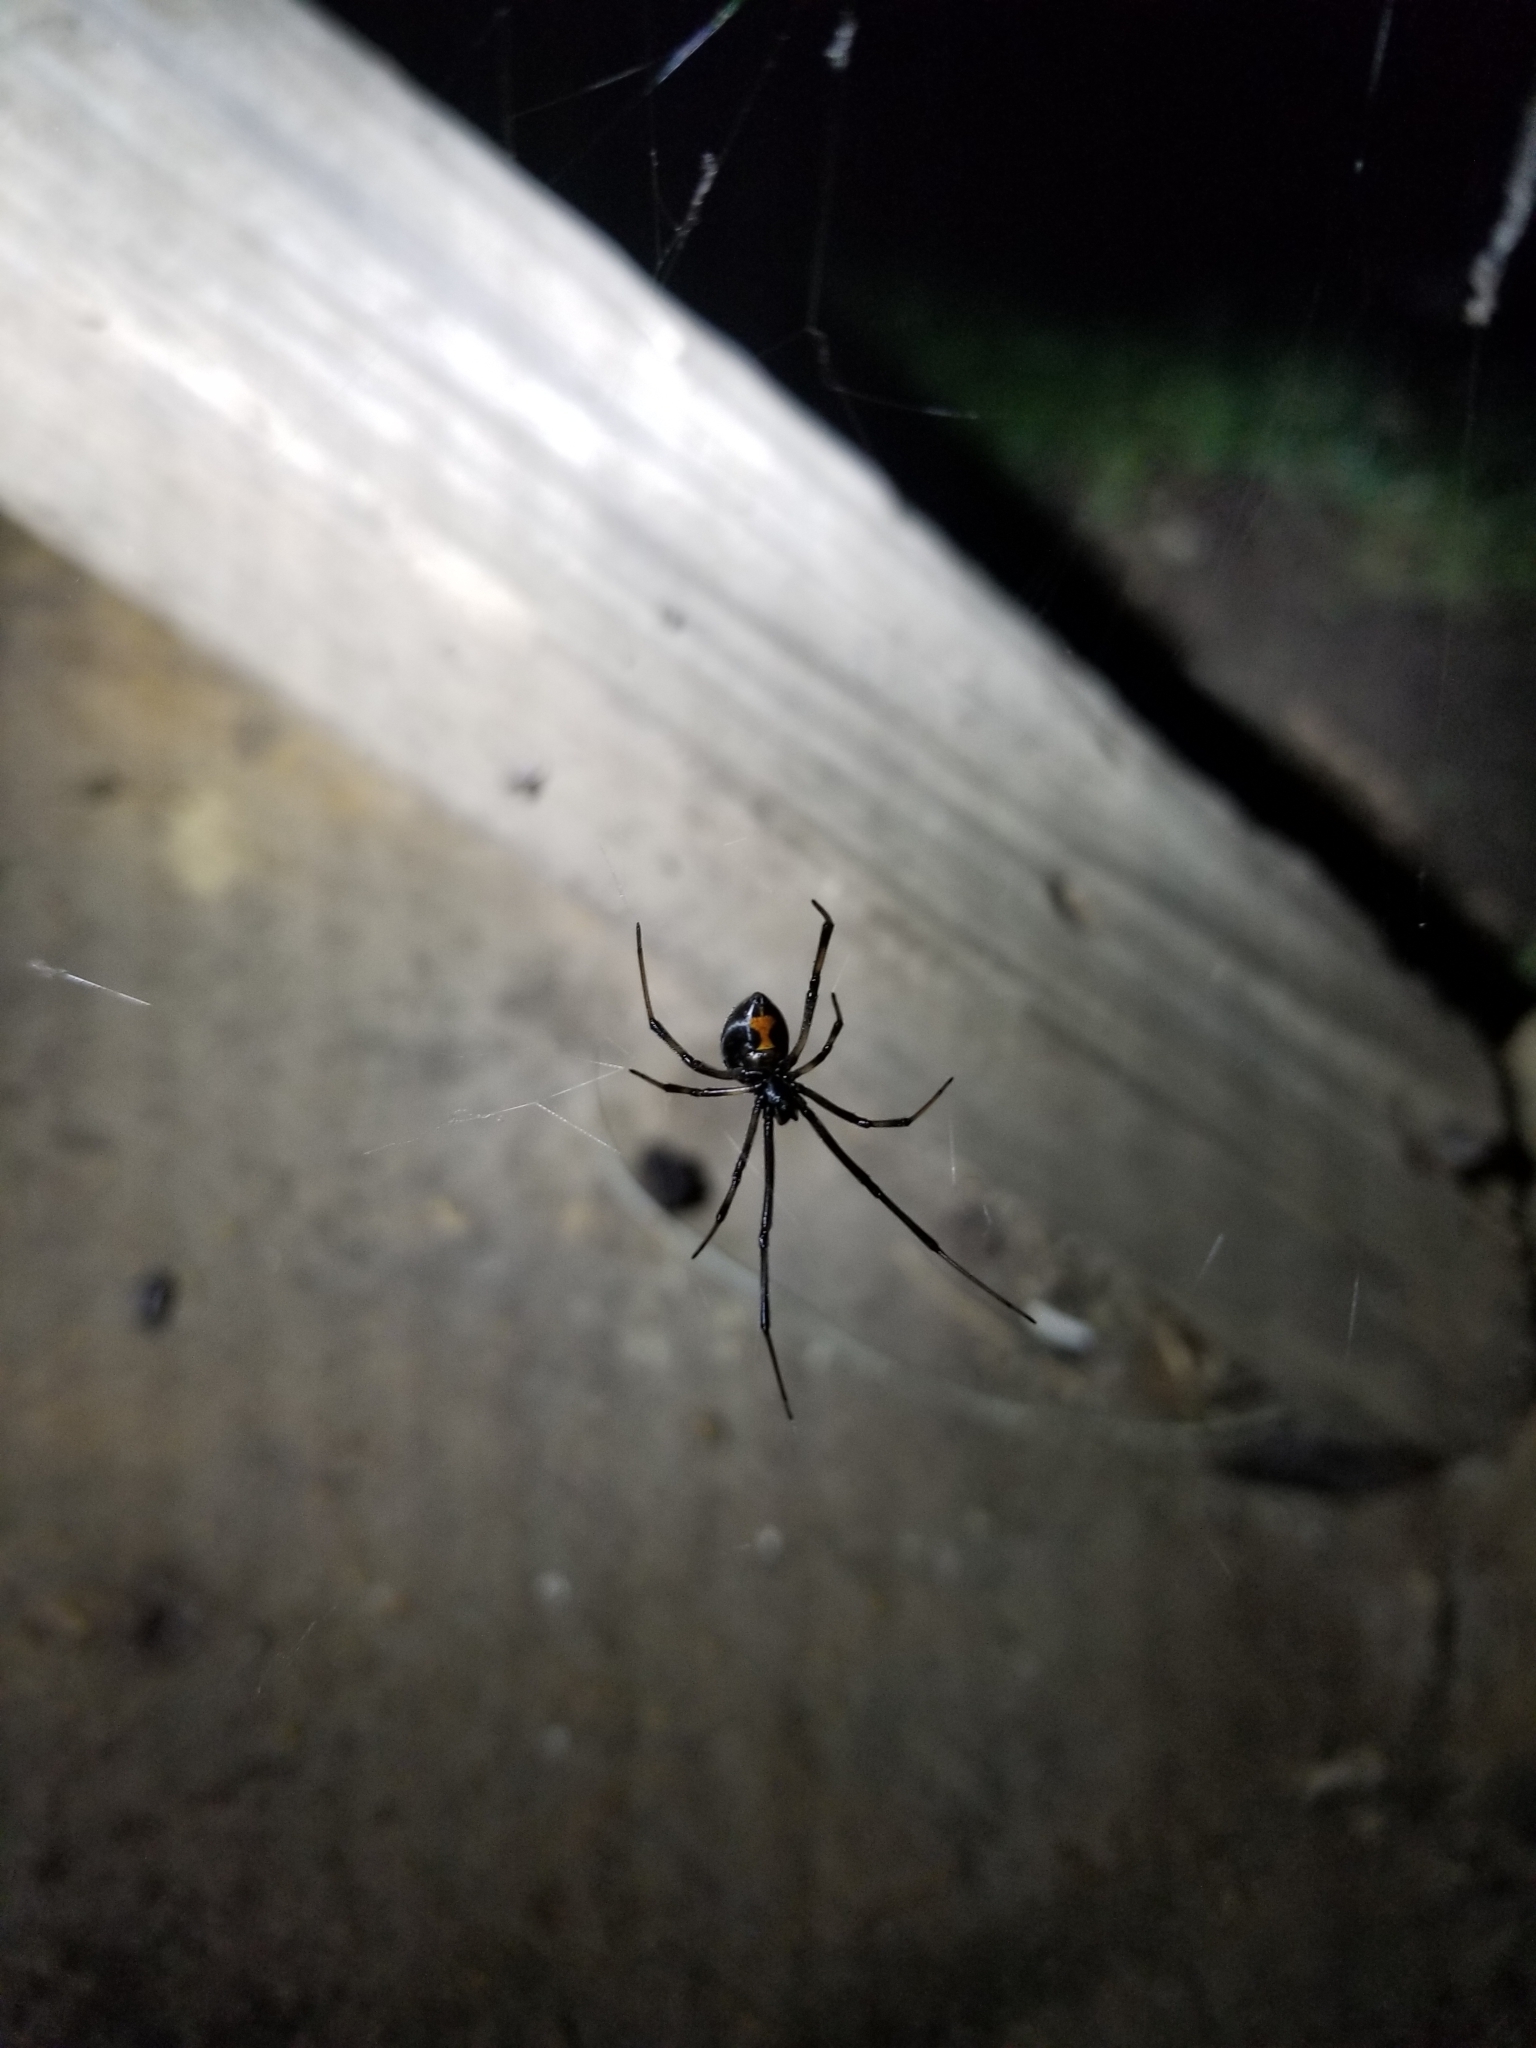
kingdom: Animalia
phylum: Arthropoda
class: Arachnida
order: Araneae
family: Theridiidae
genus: Latrodectus
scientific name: Latrodectus geometricus
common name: Brown widow spider
